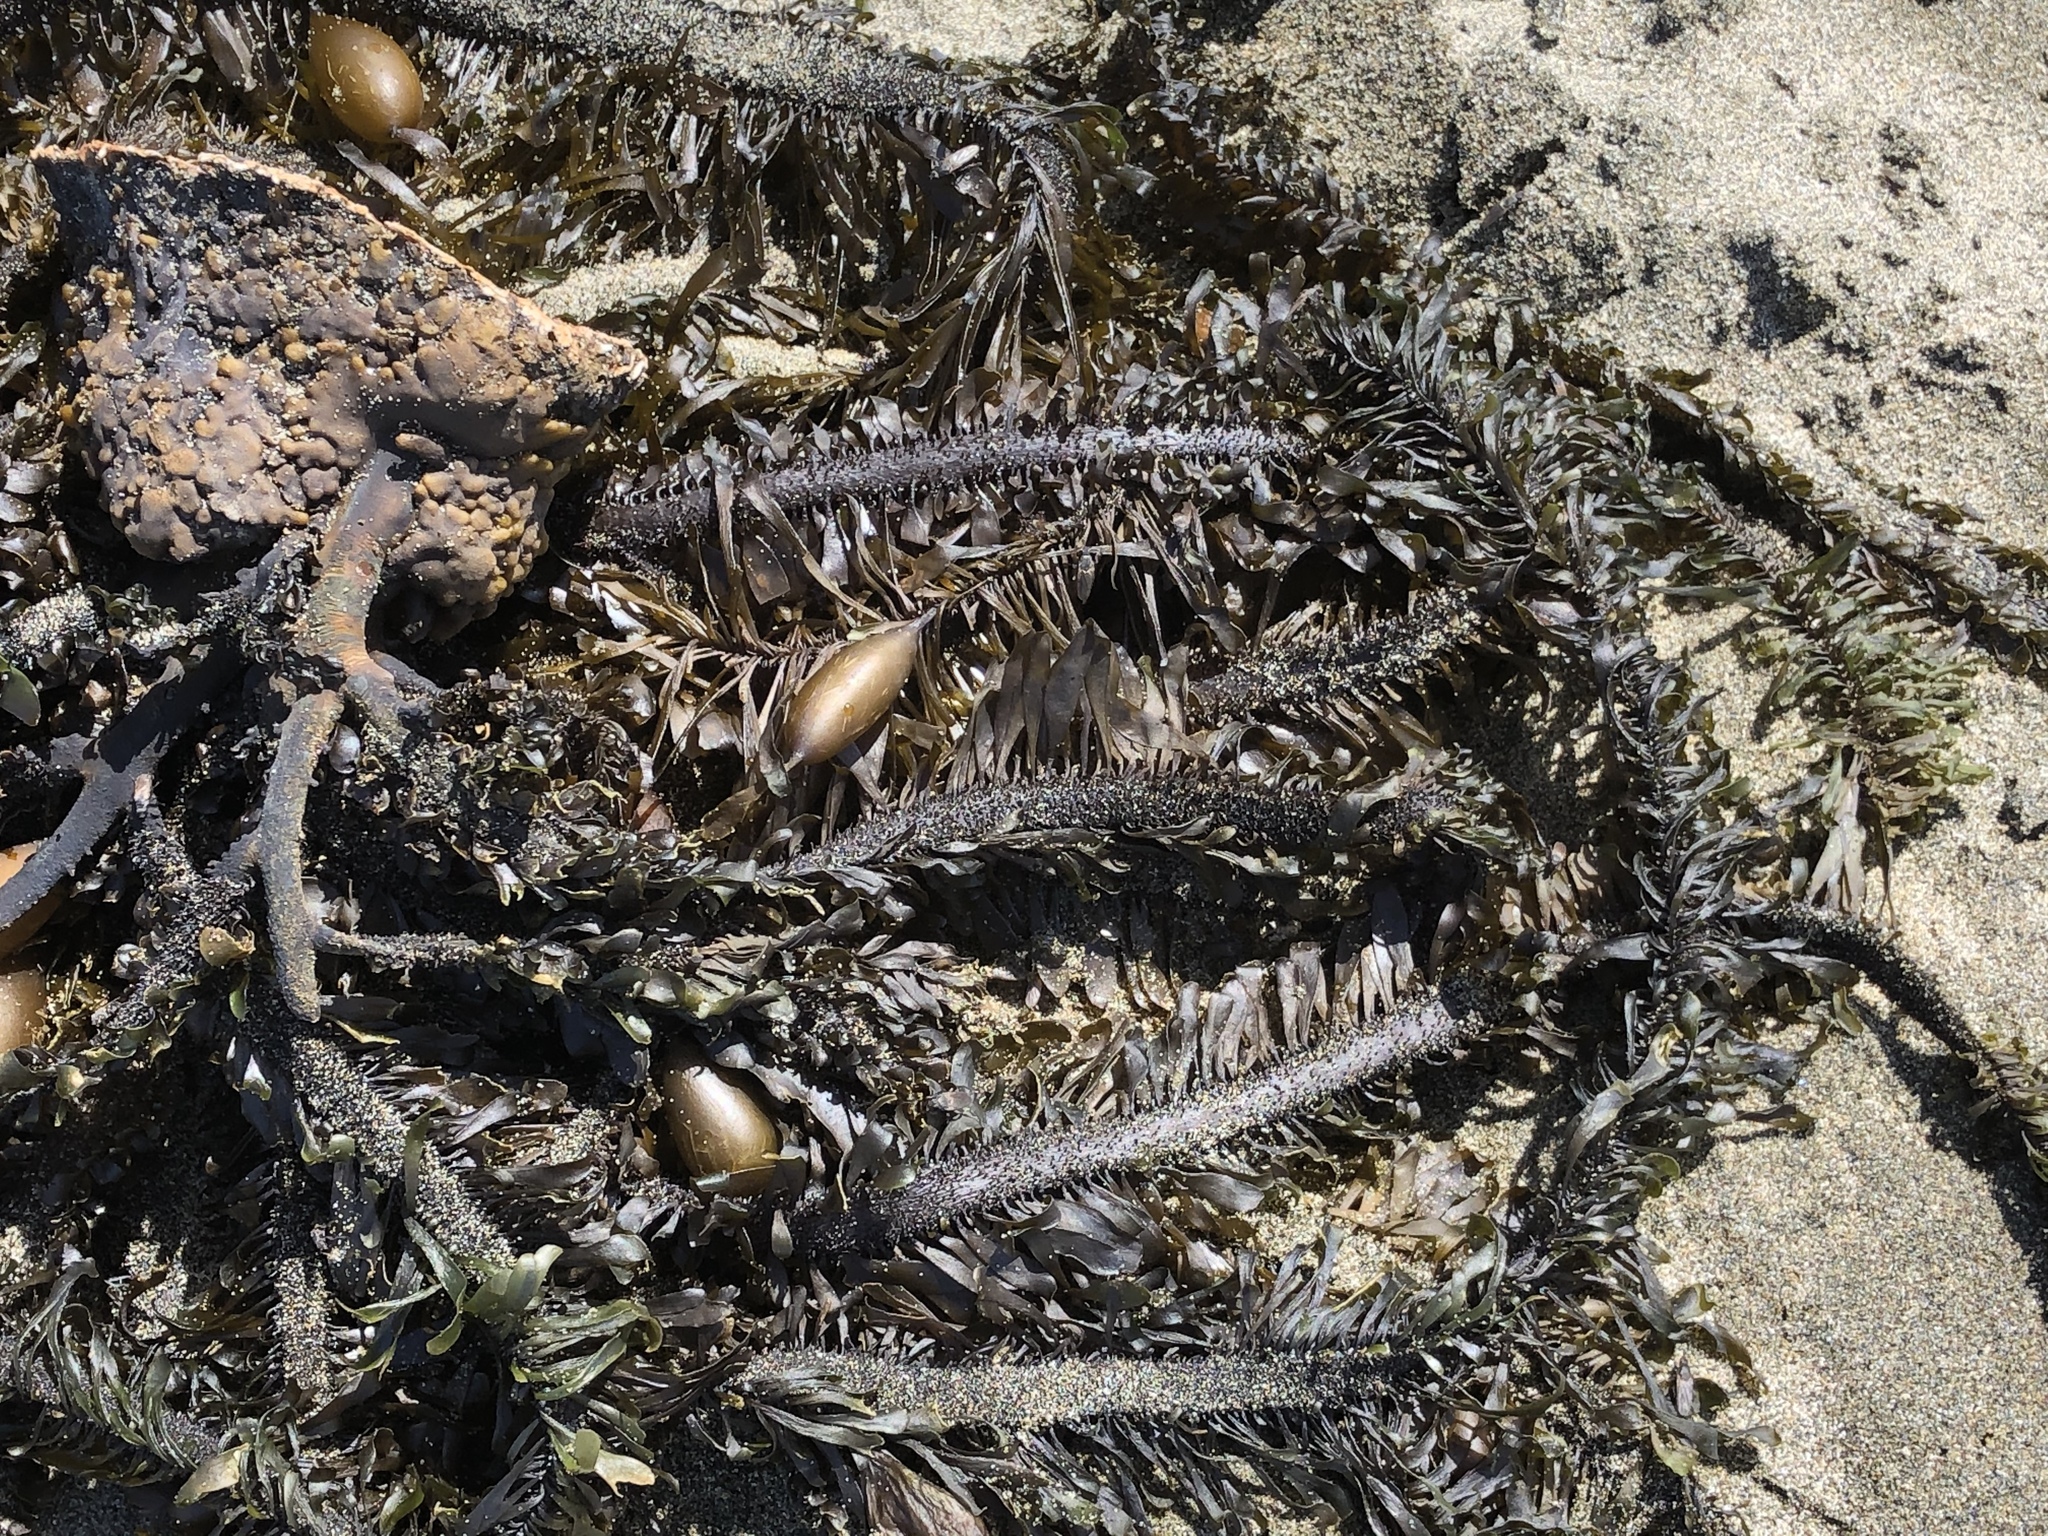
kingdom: Chromista
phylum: Ochrophyta
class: Phaeophyceae
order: Laminariales
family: Lessoniaceae
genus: Egregia
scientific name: Egregia menziesii
